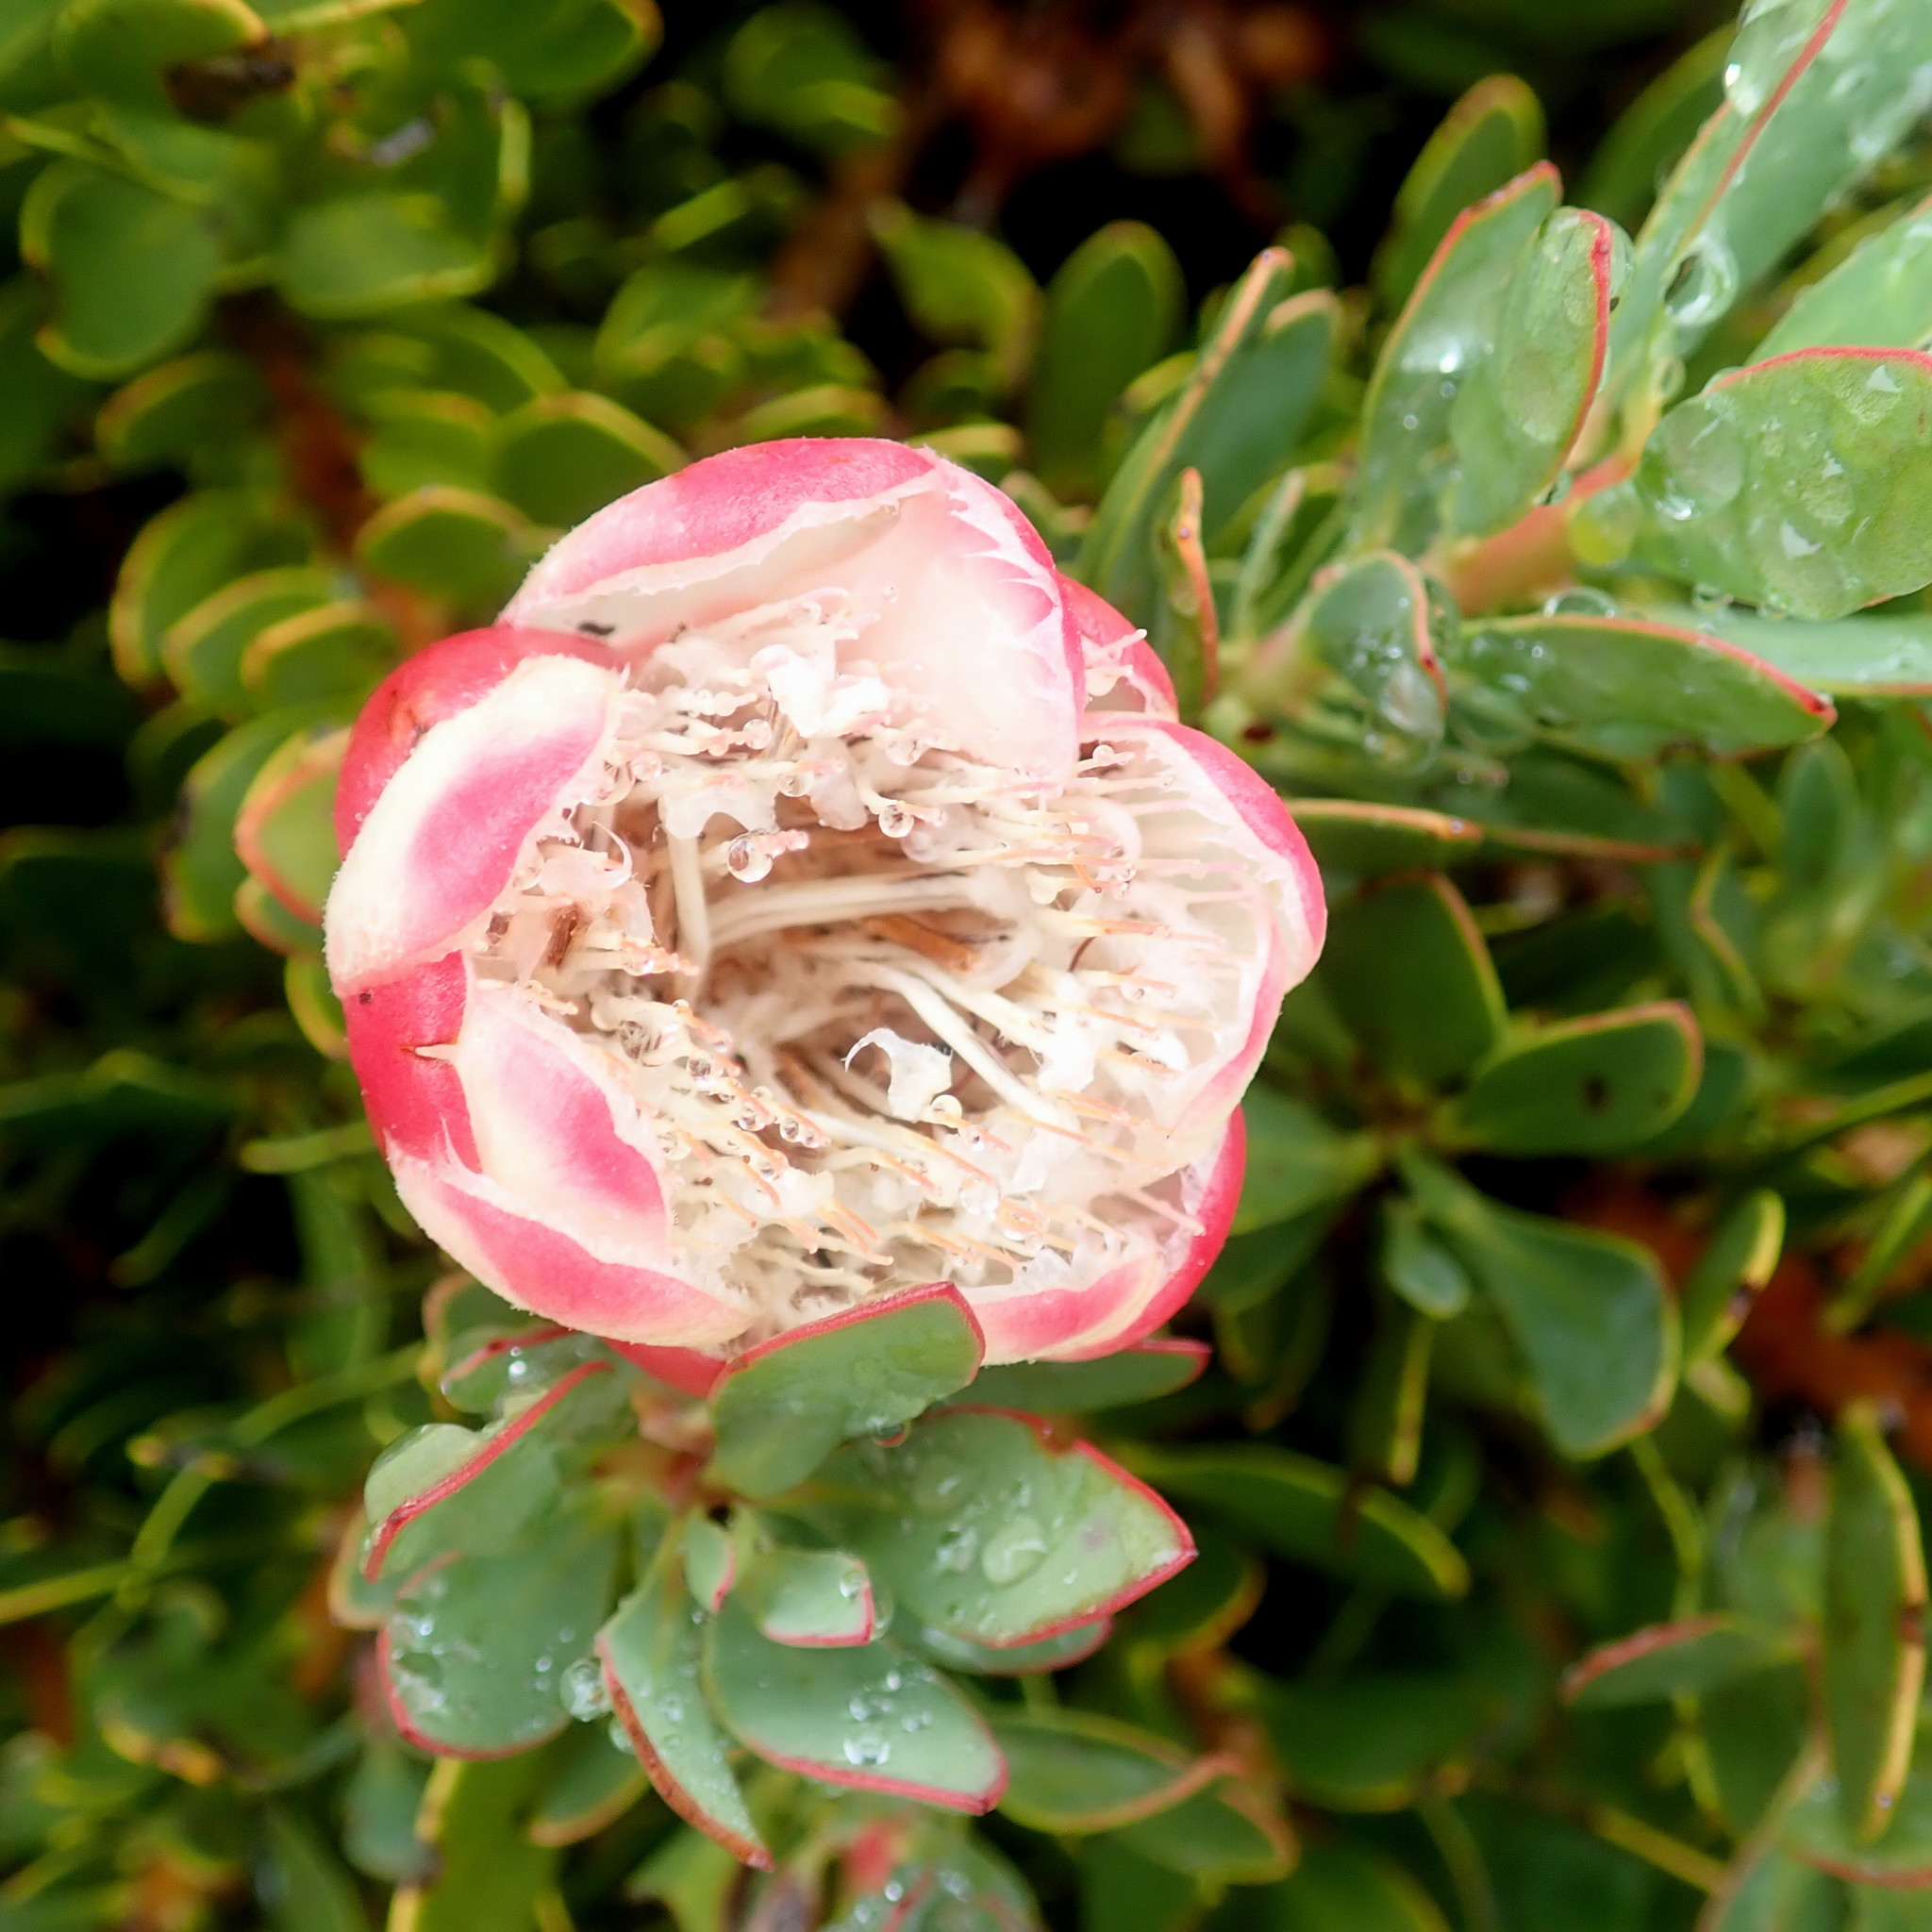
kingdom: Plantae
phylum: Tracheophyta
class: Magnoliopsida
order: Proteales
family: Proteaceae
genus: Protea
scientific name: Protea venusta
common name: Cascade sugarbush
